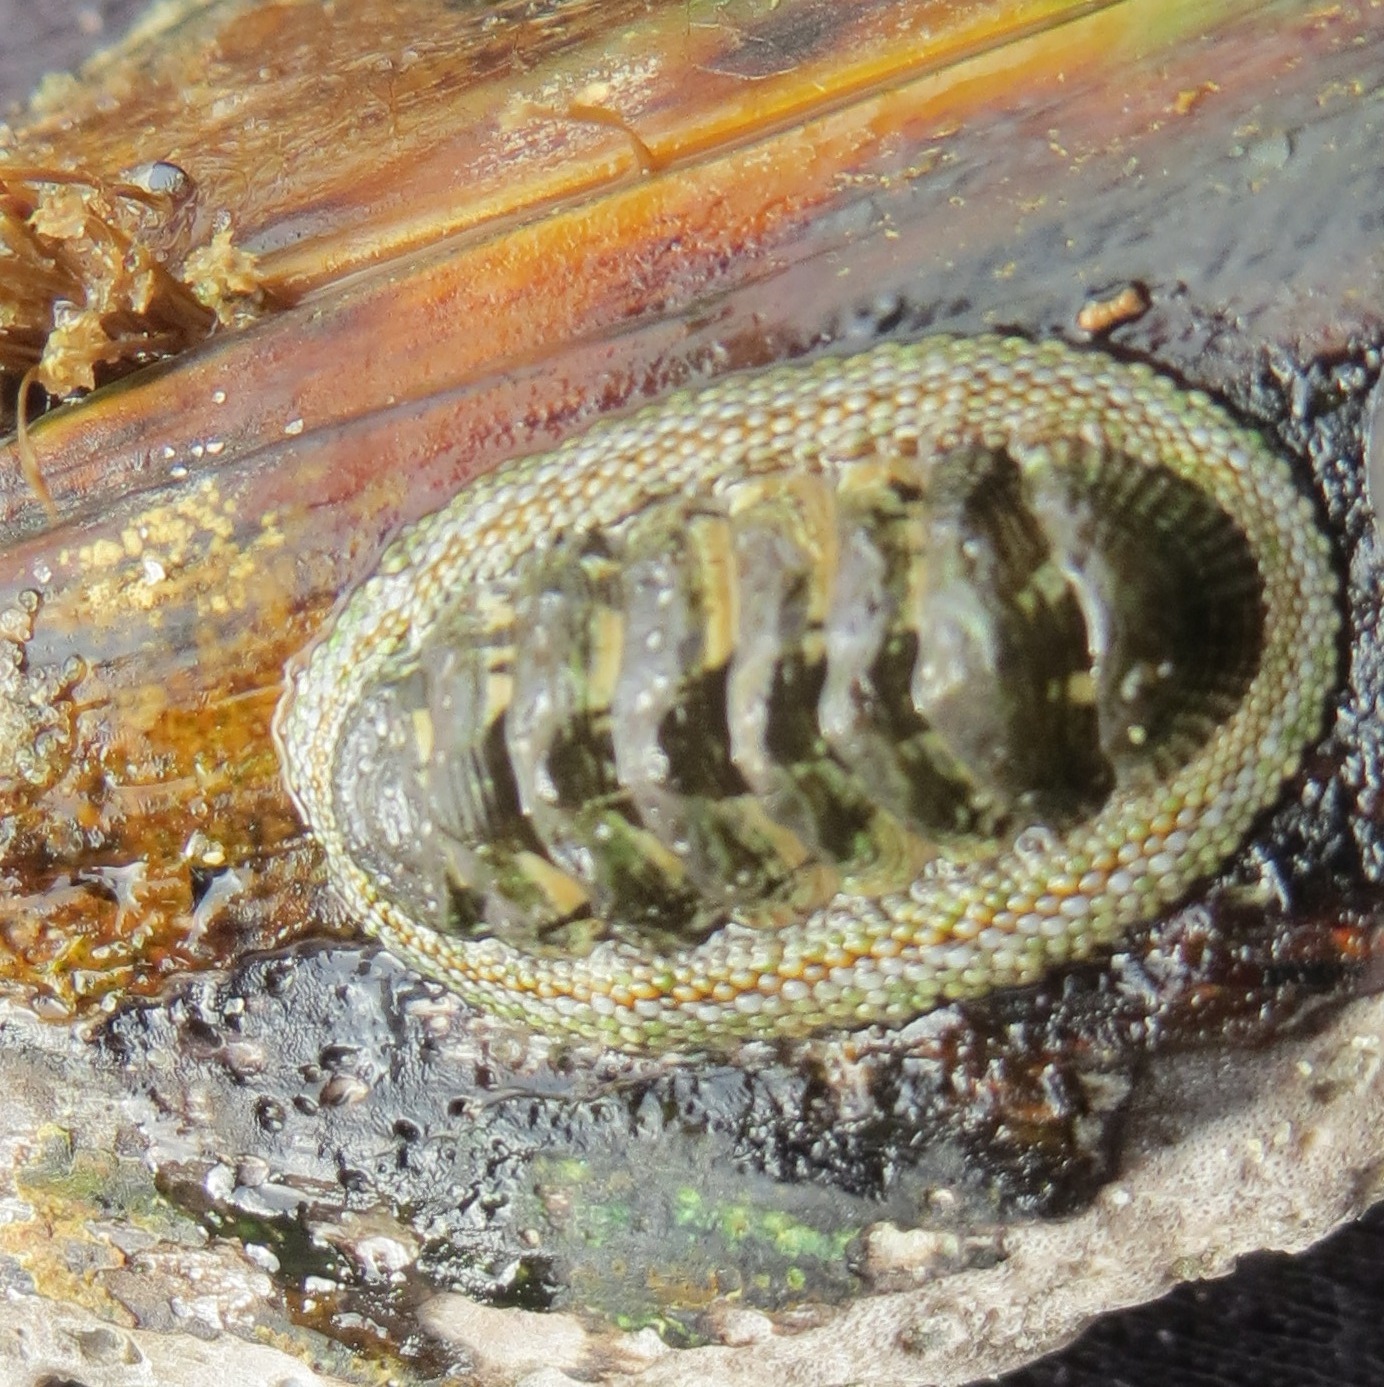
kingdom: Animalia
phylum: Mollusca
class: Polyplacophora
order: Chitonida
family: Chitonidae
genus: Sypharochiton
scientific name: Sypharochiton pelliserpentis
